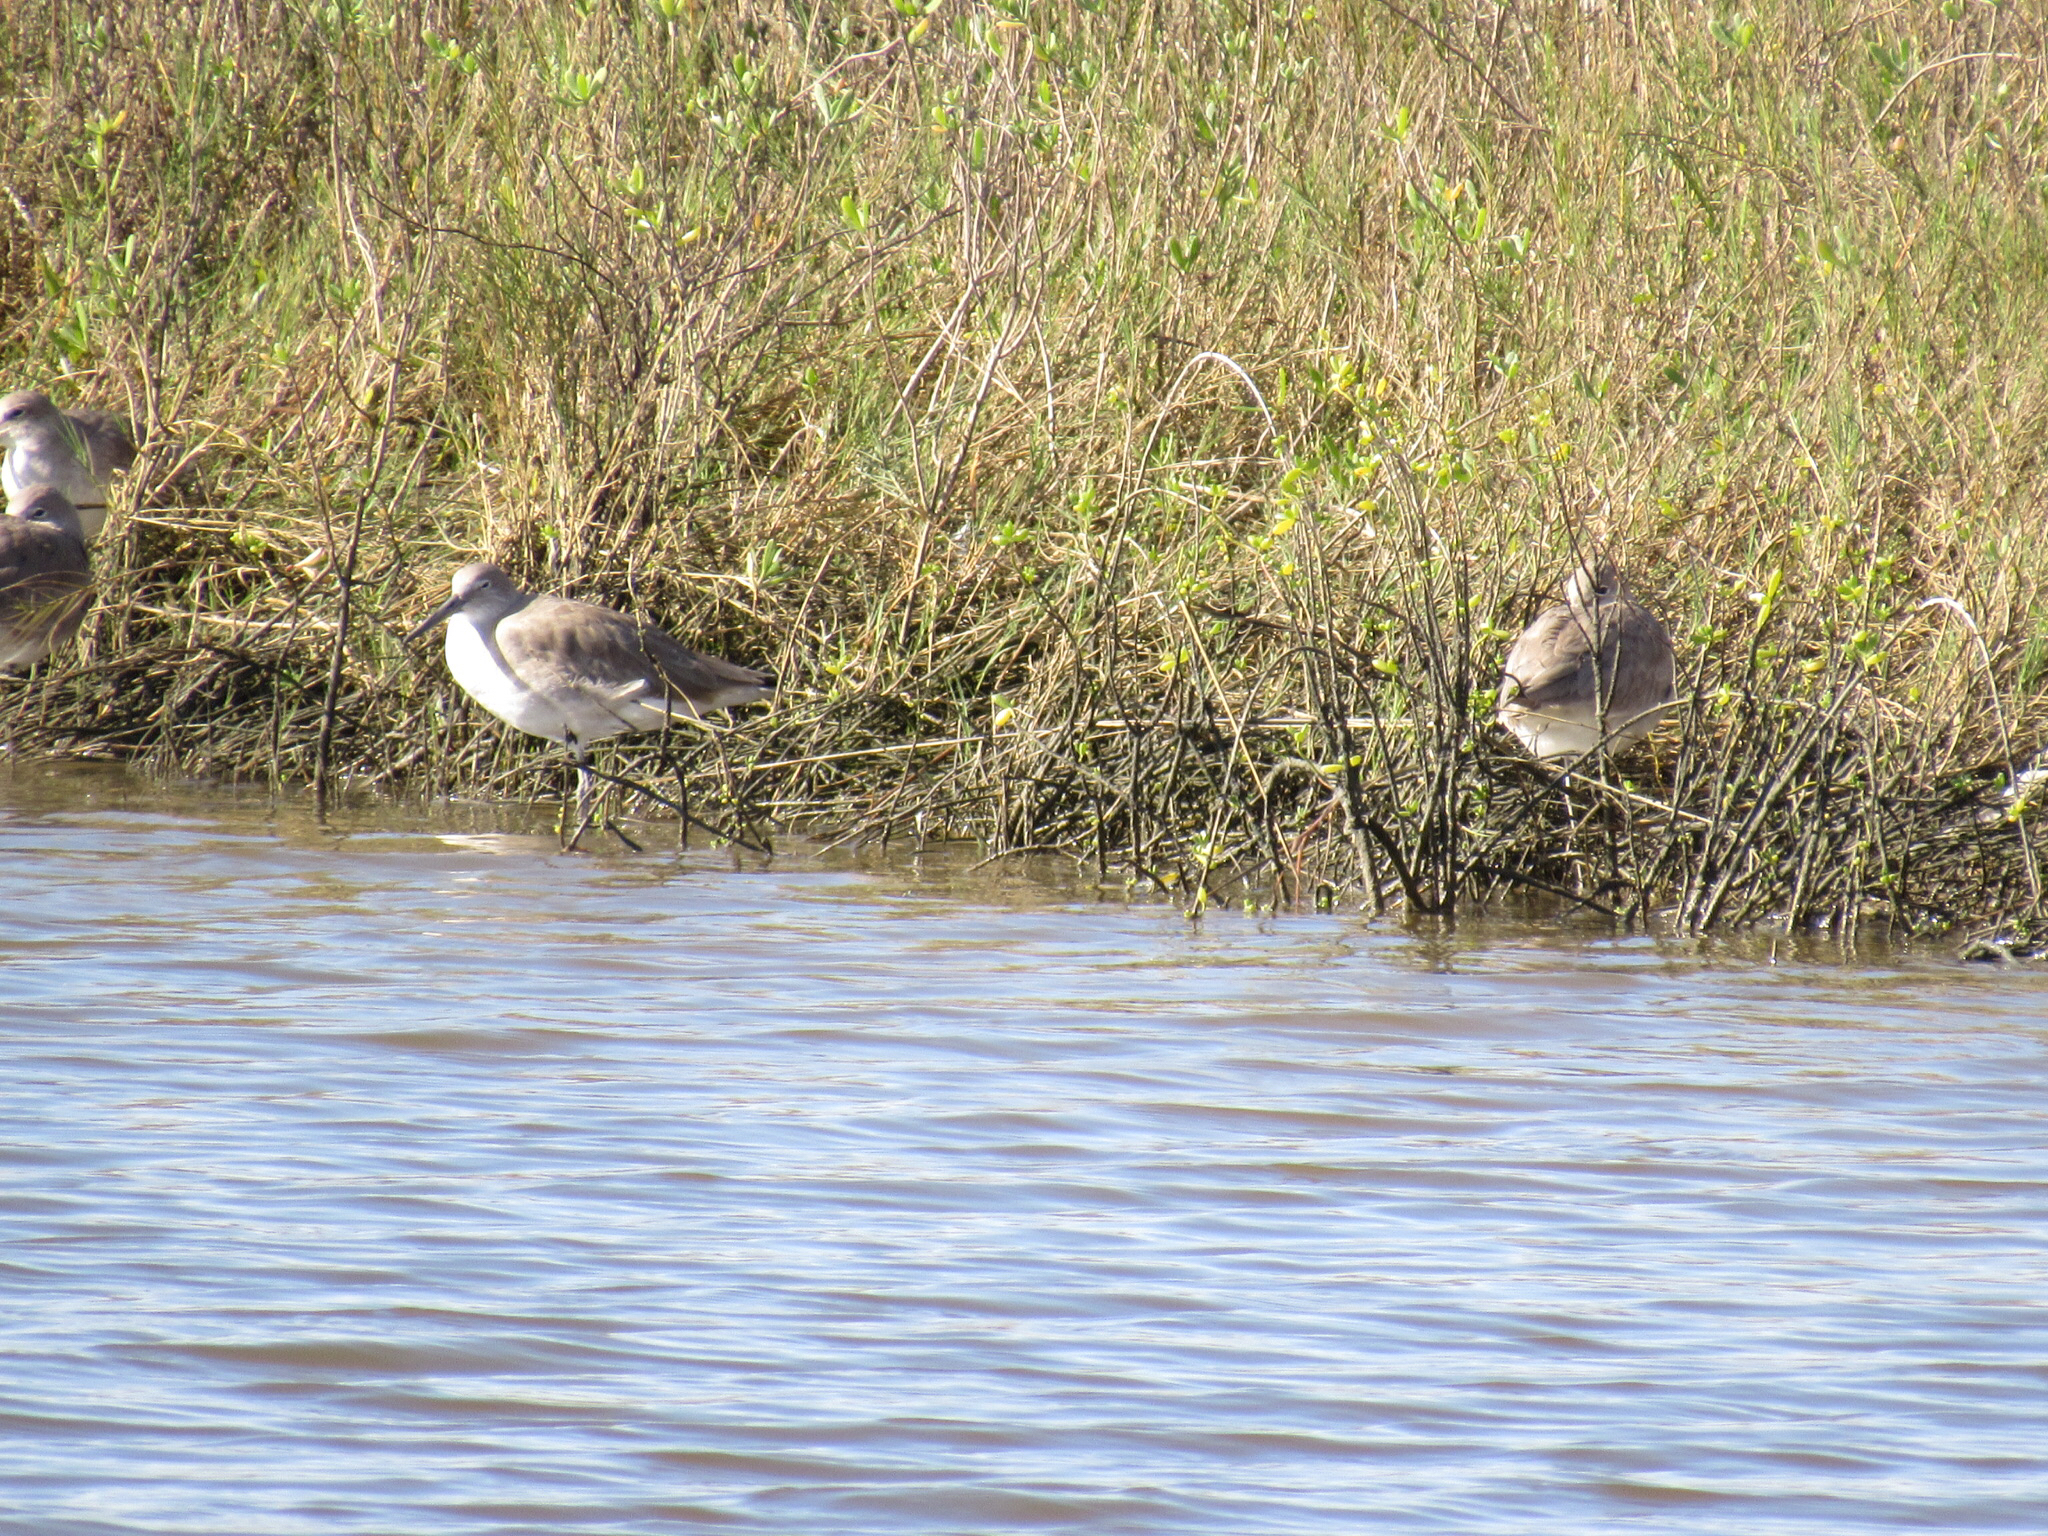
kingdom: Animalia
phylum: Chordata
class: Aves
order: Charadriiformes
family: Scolopacidae
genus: Tringa
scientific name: Tringa semipalmata
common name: Willet
